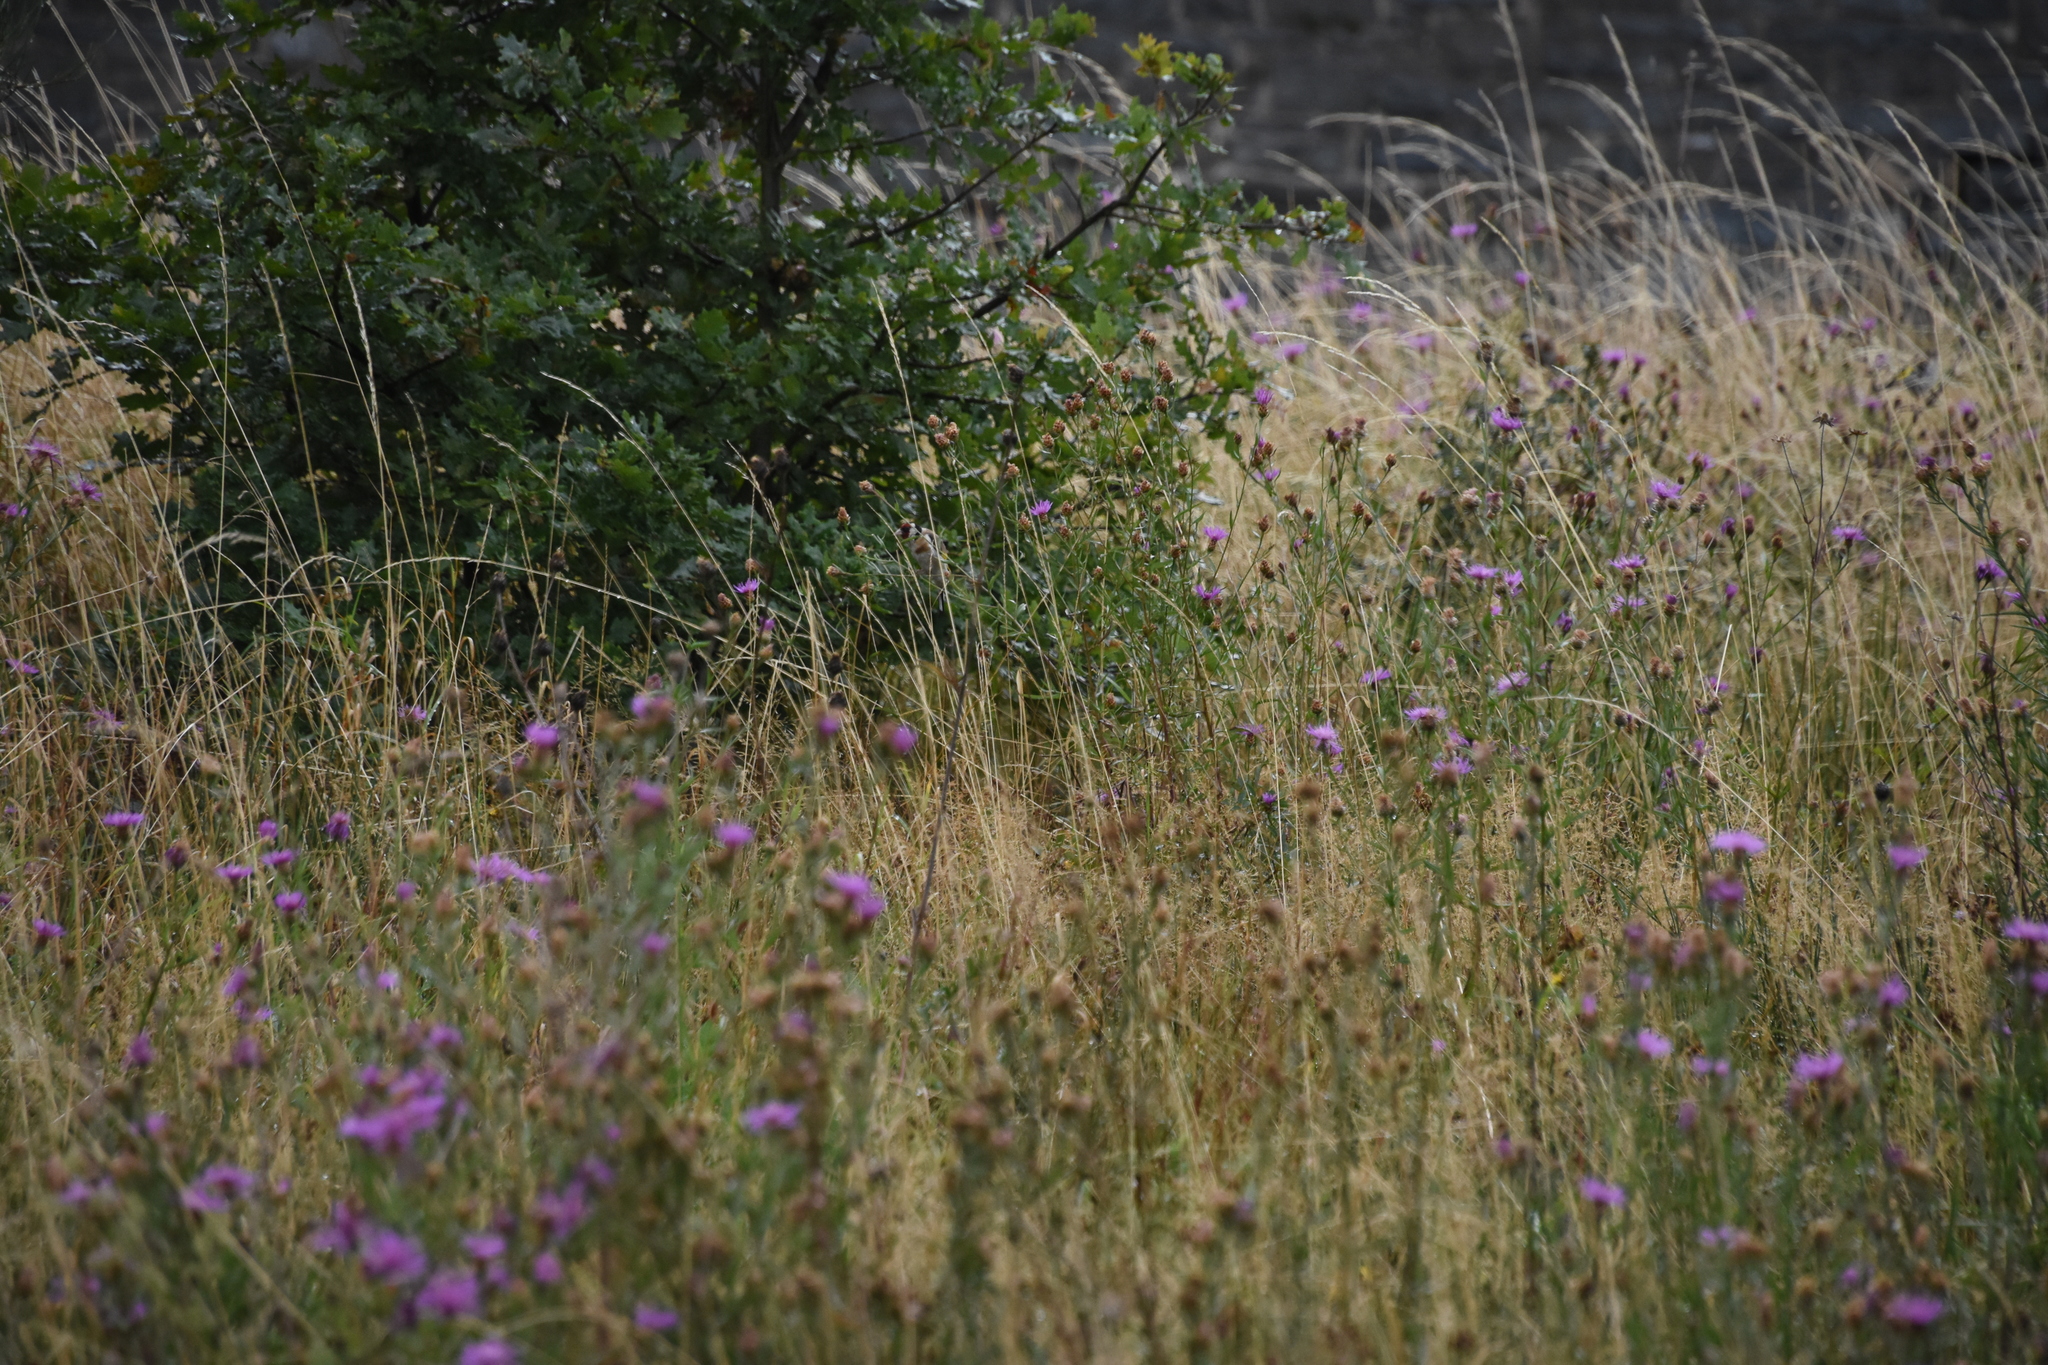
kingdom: Animalia
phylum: Chordata
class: Aves
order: Passeriformes
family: Fringillidae
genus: Carduelis
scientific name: Carduelis carduelis
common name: European goldfinch
